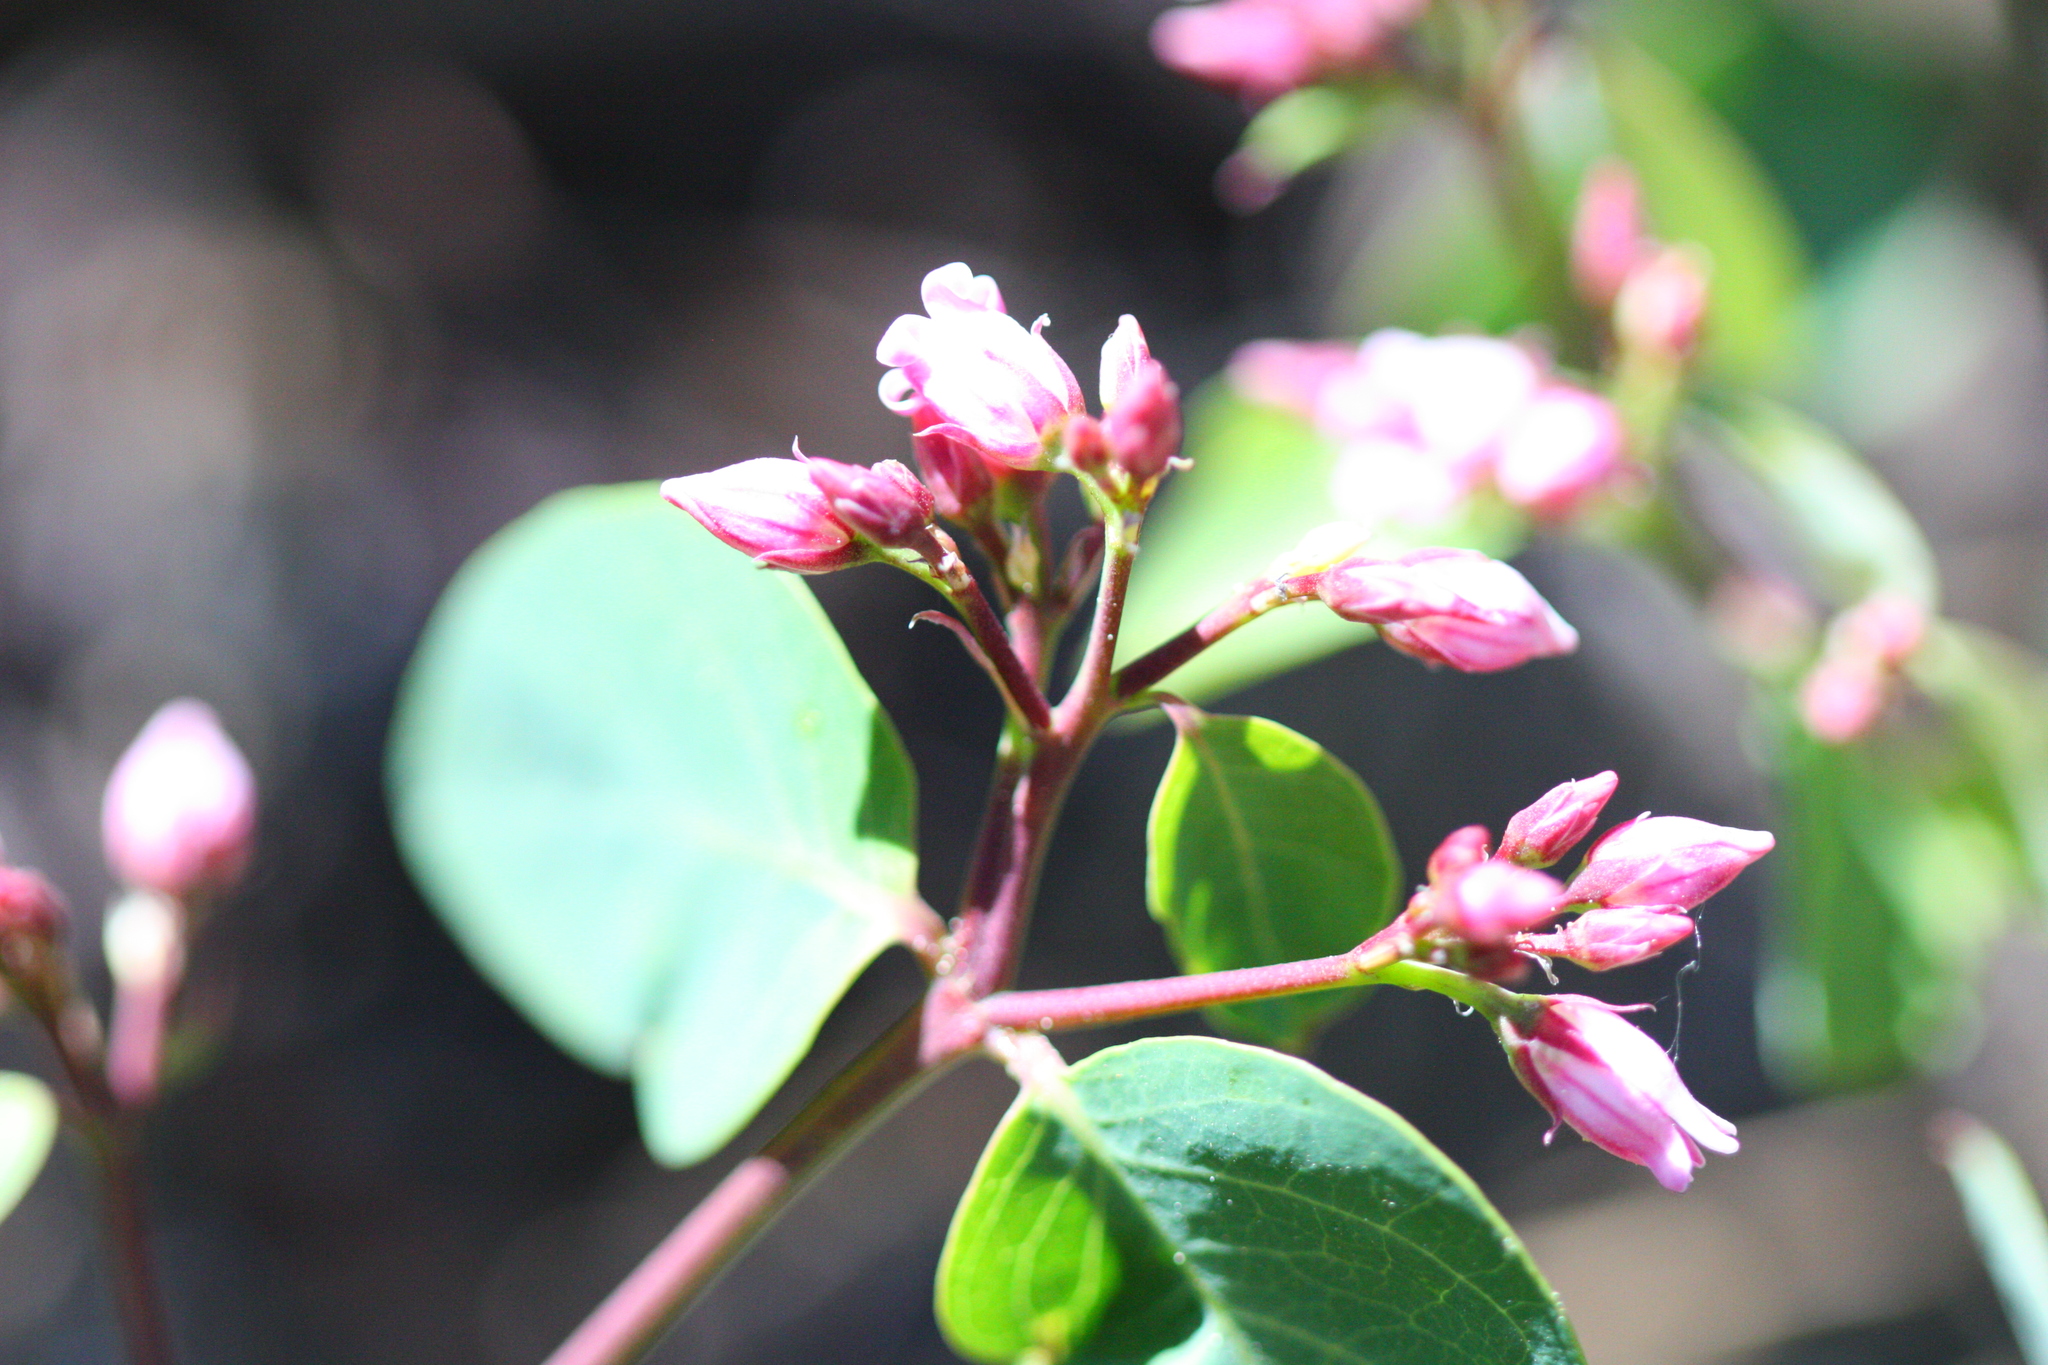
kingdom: Plantae
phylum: Tracheophyta
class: Magnoliopsida
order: Gentianales
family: Apocynaceae
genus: Apocynum
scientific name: Apocynum androsaemifolium
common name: Spreading dogbane
